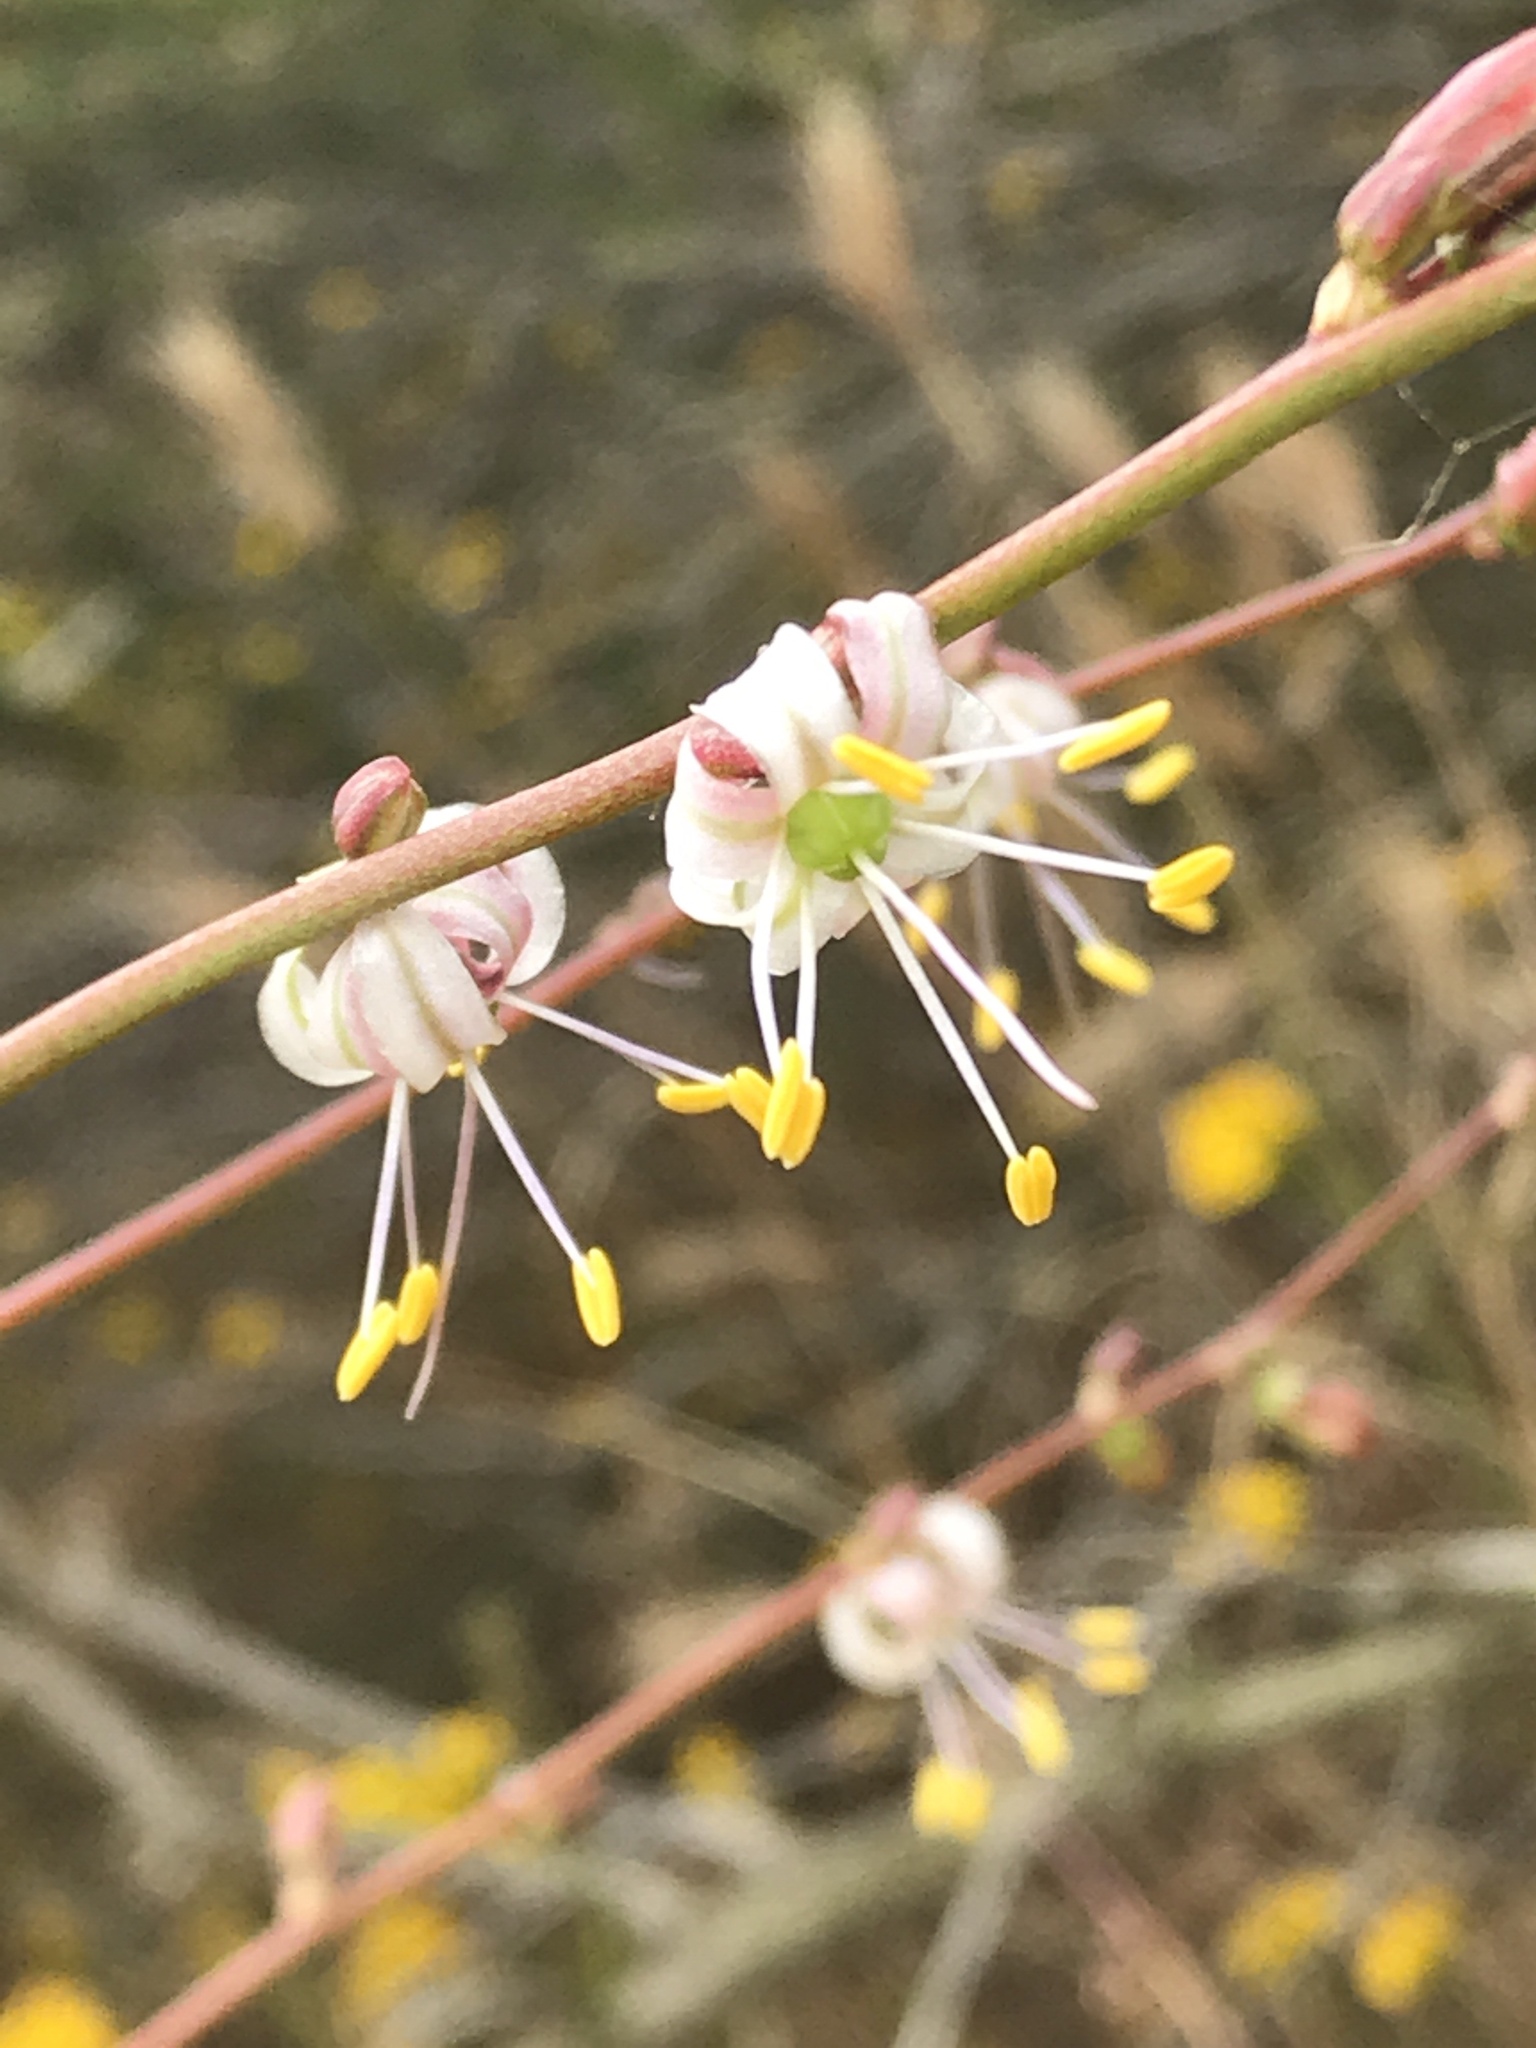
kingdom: Plantae
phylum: Tracheophyta
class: Liliopsida
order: Asparagales
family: Asparagaceae
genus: Hooveria
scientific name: Hooveria parviflora
